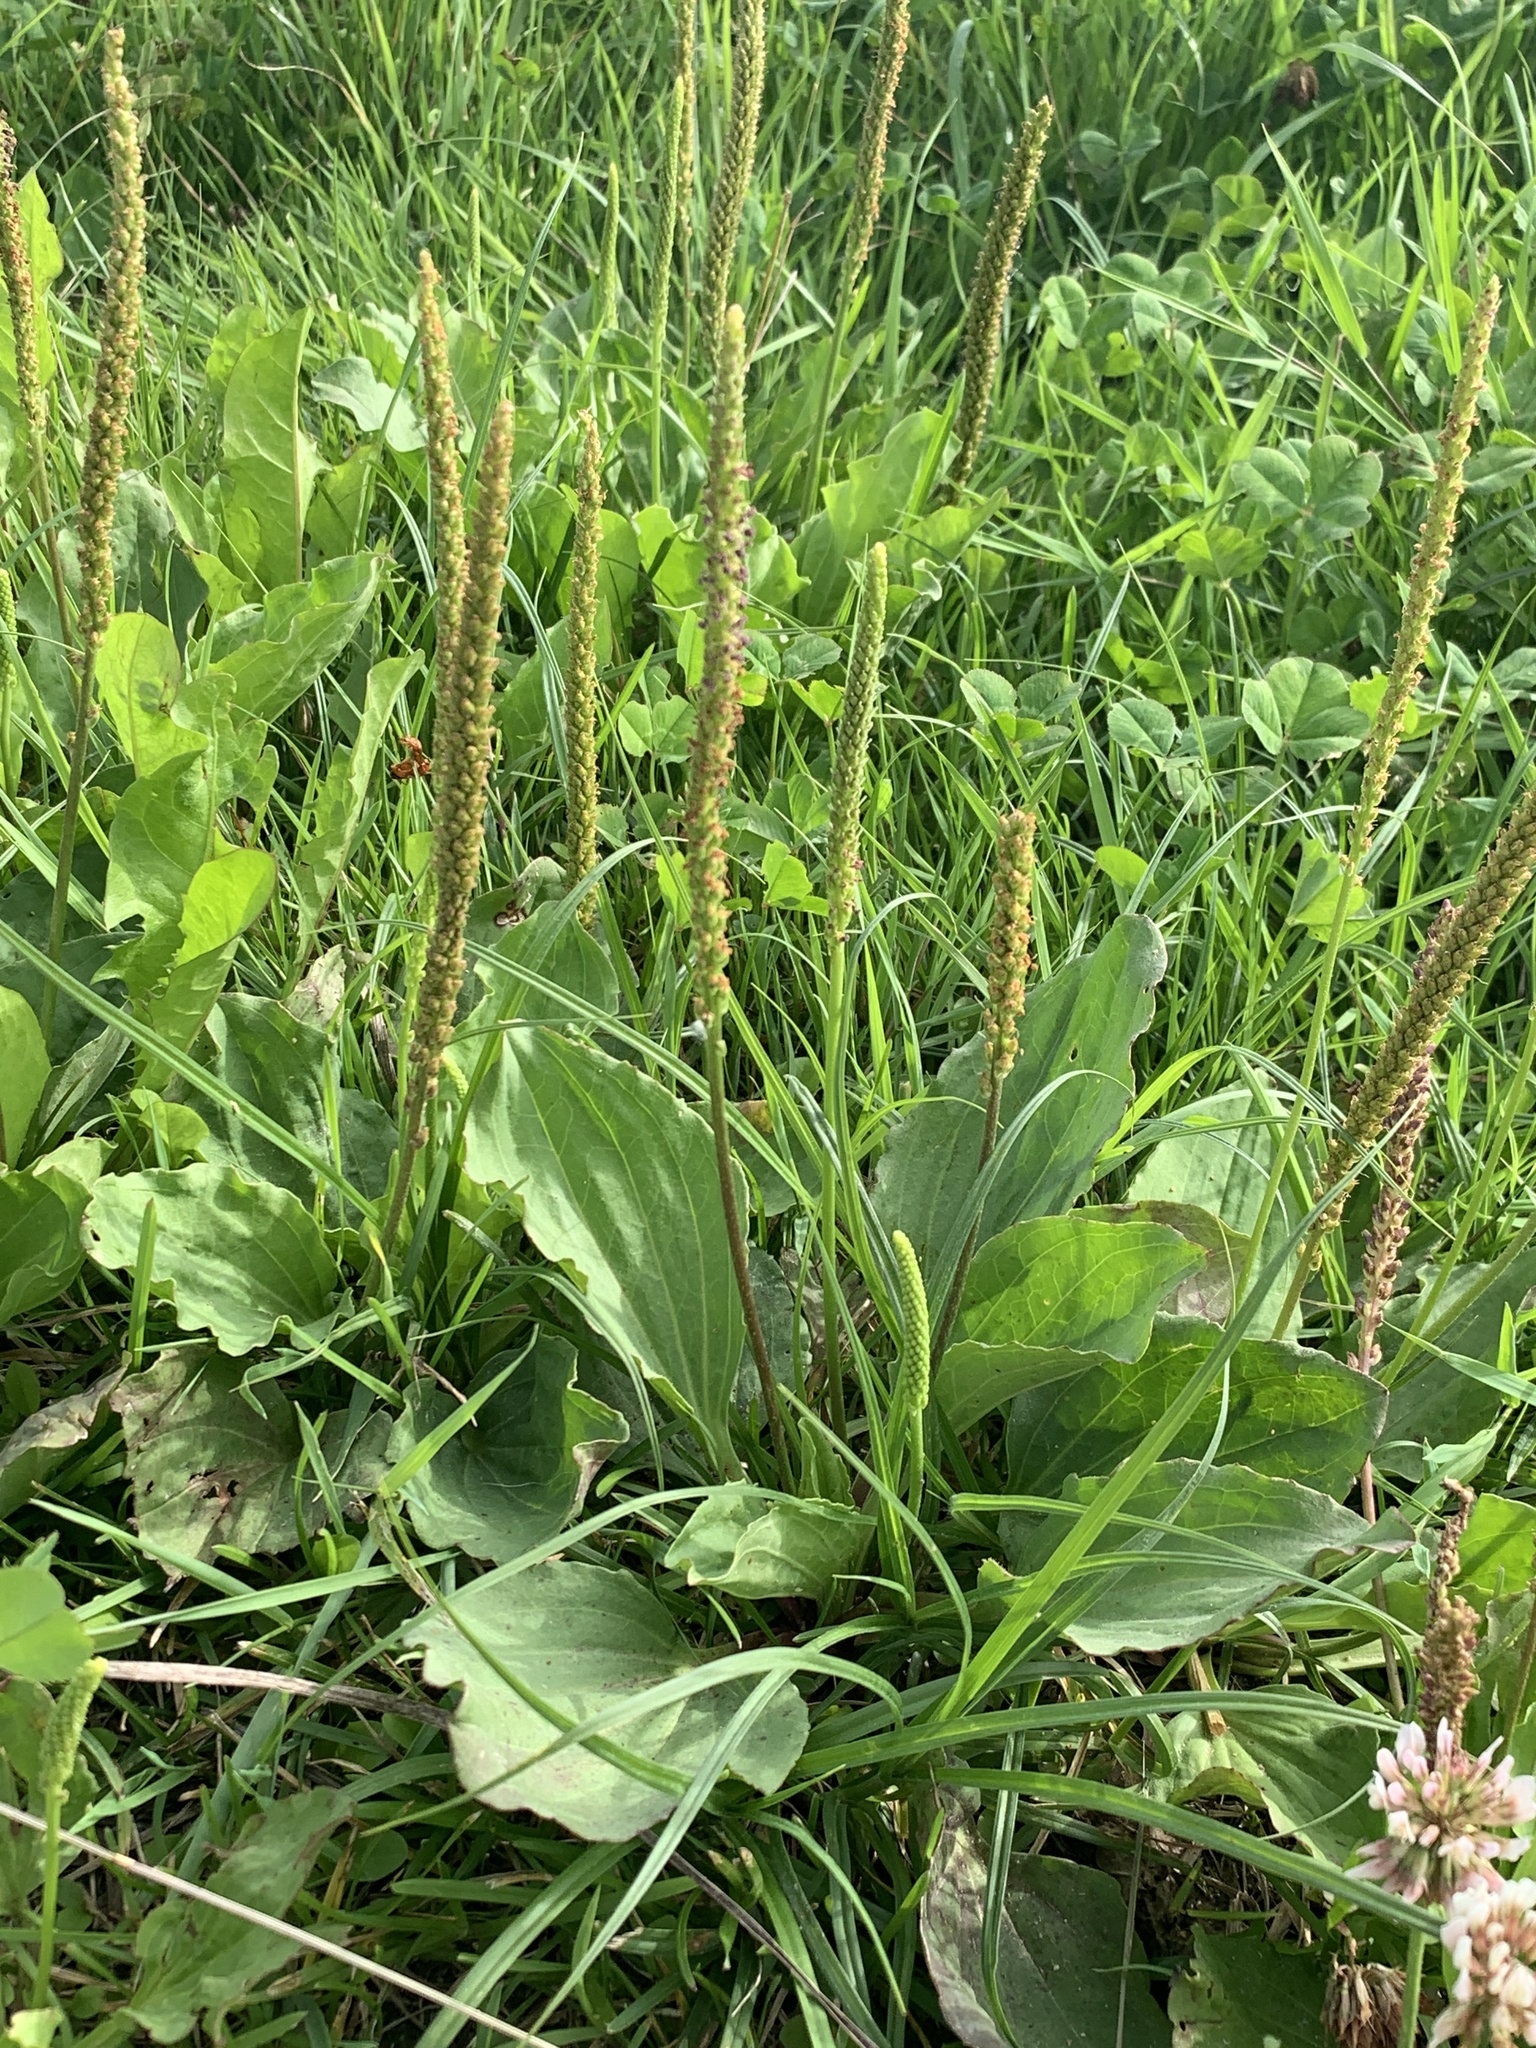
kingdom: Plantae
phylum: Tracheophyta
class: Magnoliopsida
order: Lamiales
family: Plantaginaceae
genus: Plantago
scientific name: Plantago major
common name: Common plantain
